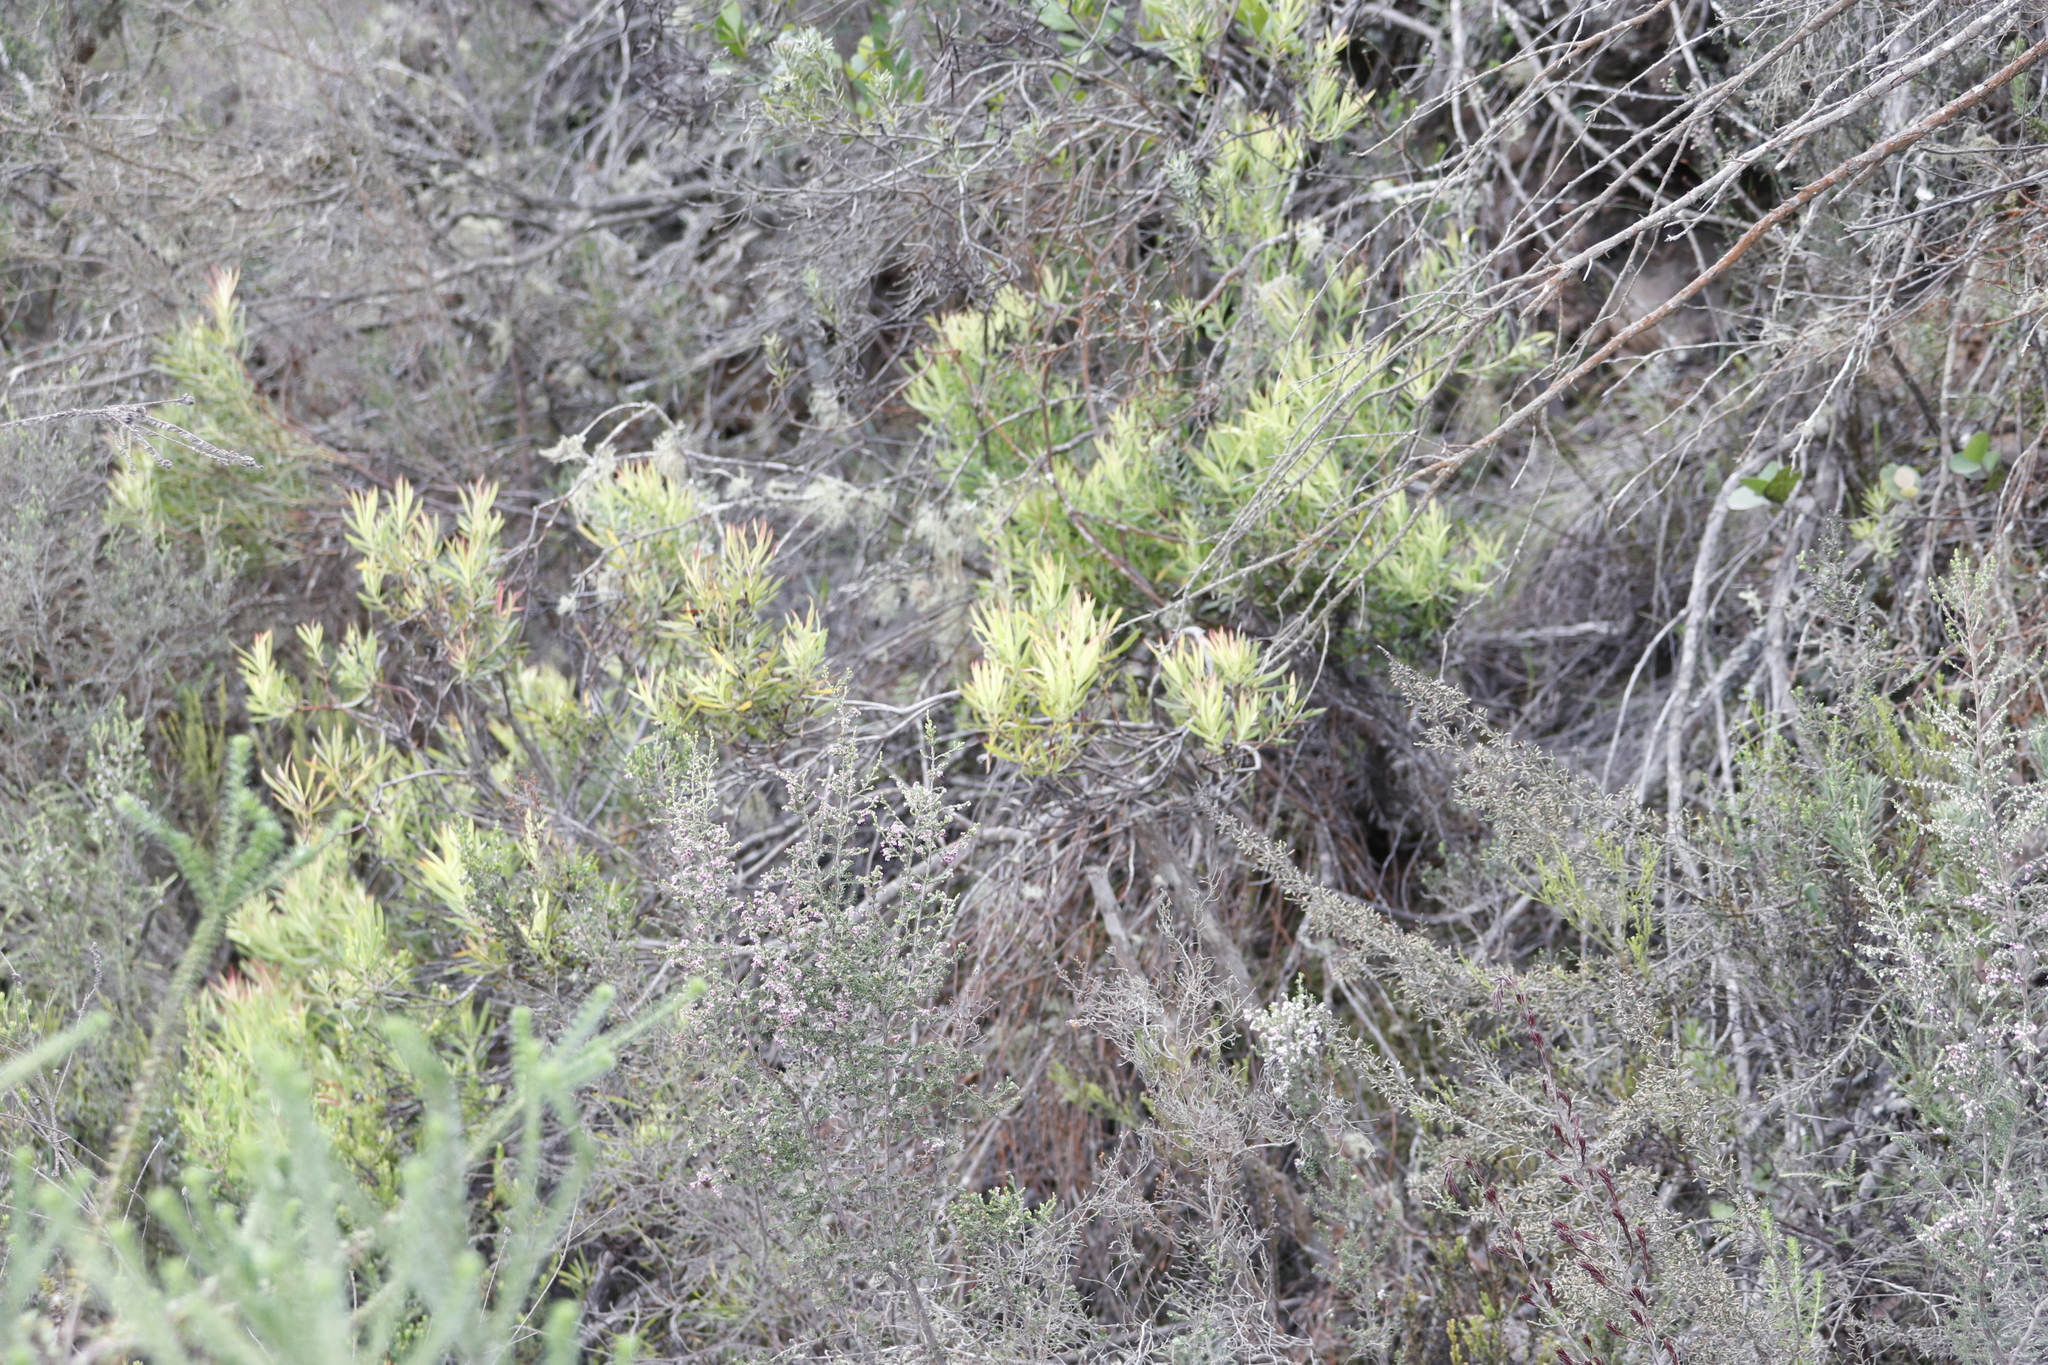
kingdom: Plantae
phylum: Tracheophyta
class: Magnoliopsida
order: Proteales
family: Proteaceae
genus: Leucadendron
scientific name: Leucadendron salignum
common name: Common sunshine conebush
